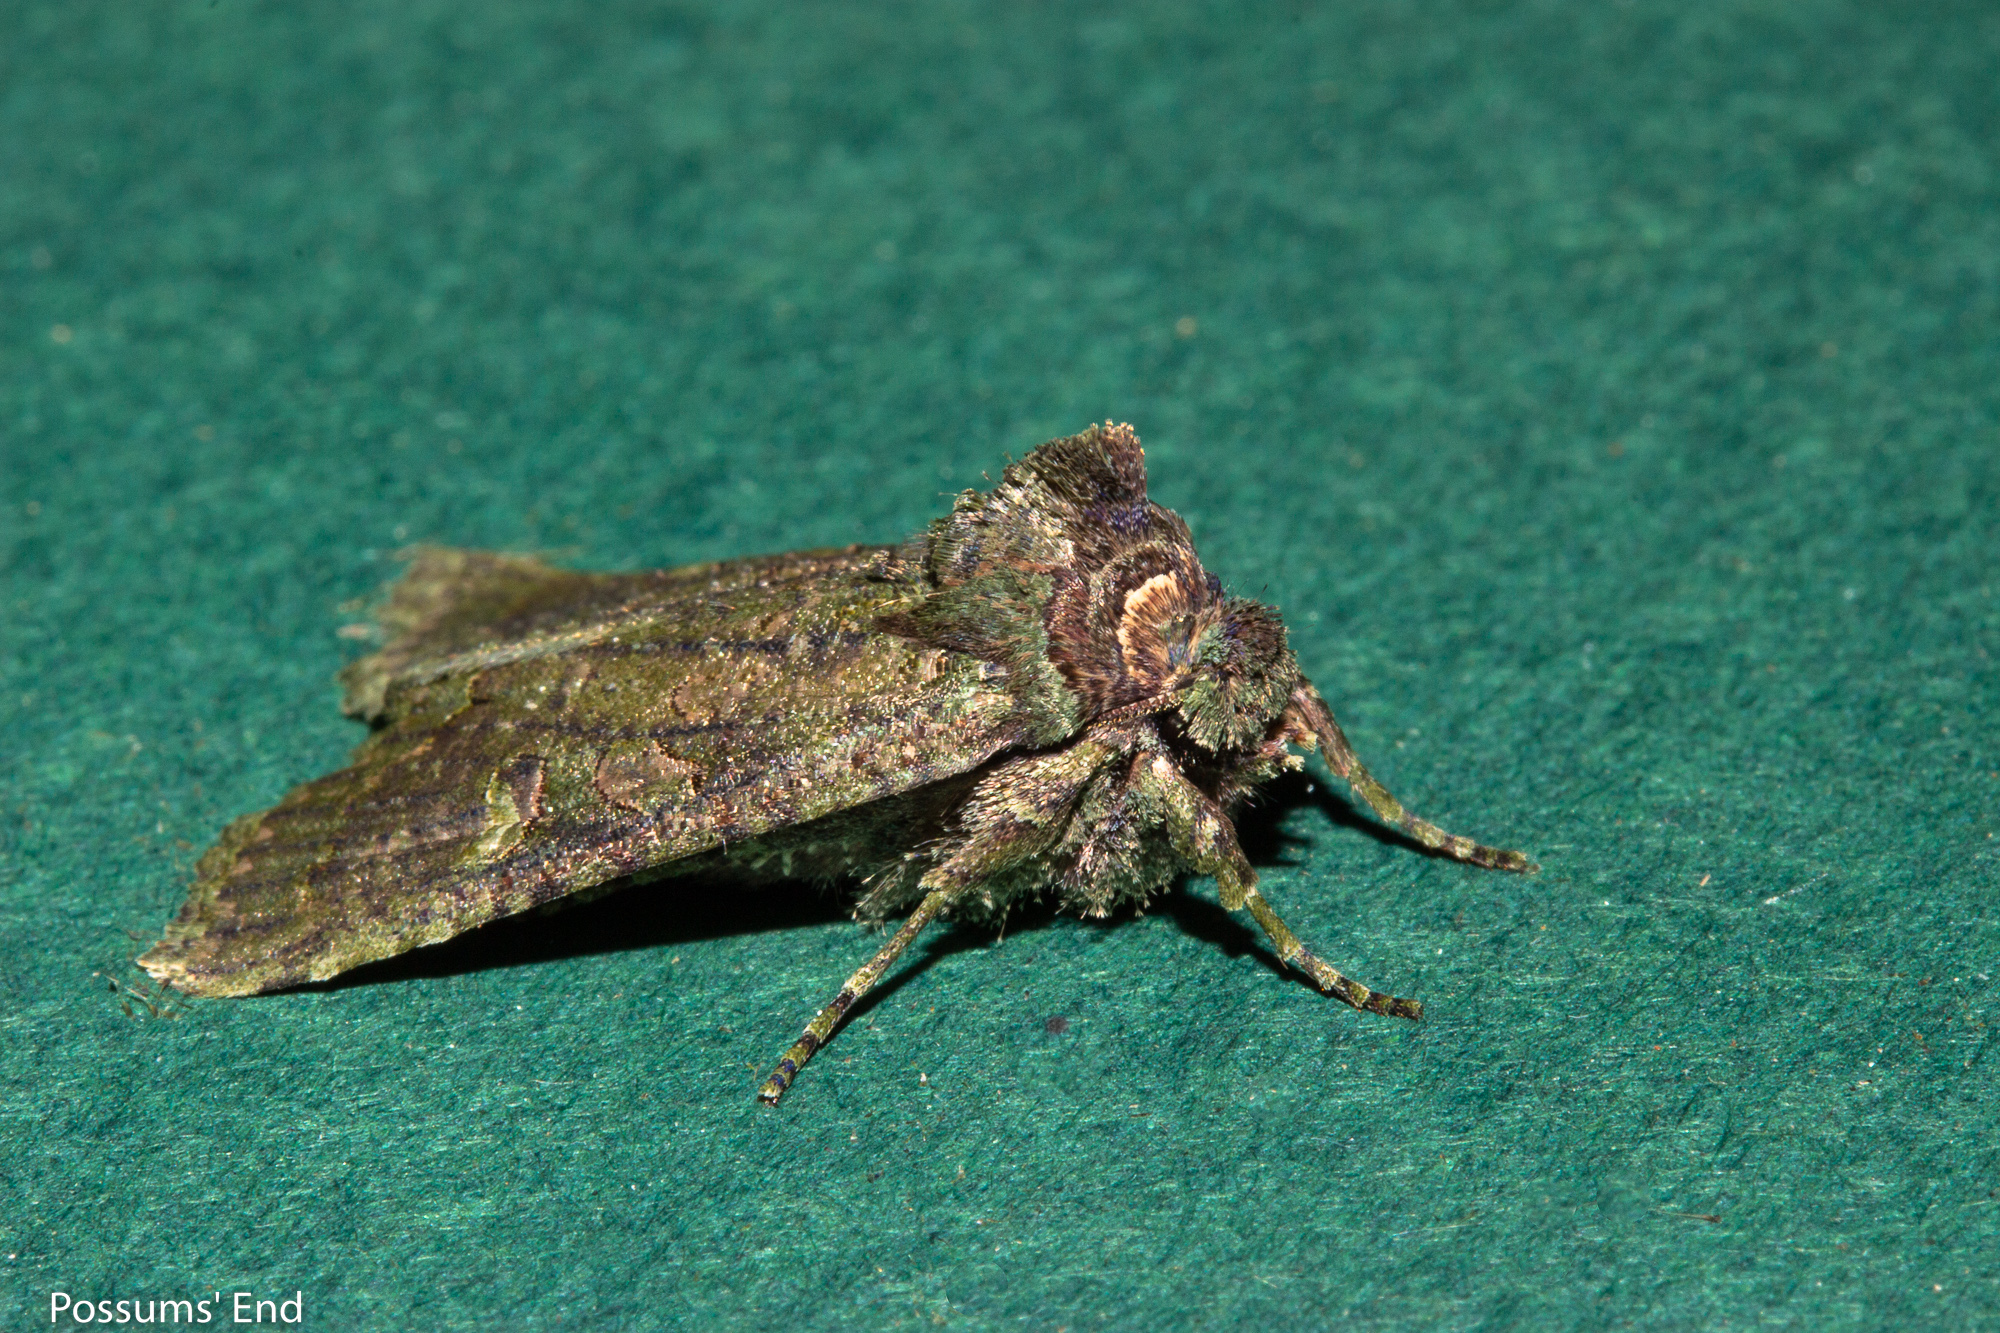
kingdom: Animalia
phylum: Arthropoda
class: Insecta
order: Lepidoptera
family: Noctuidae
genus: Meterana
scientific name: Meterana levis
